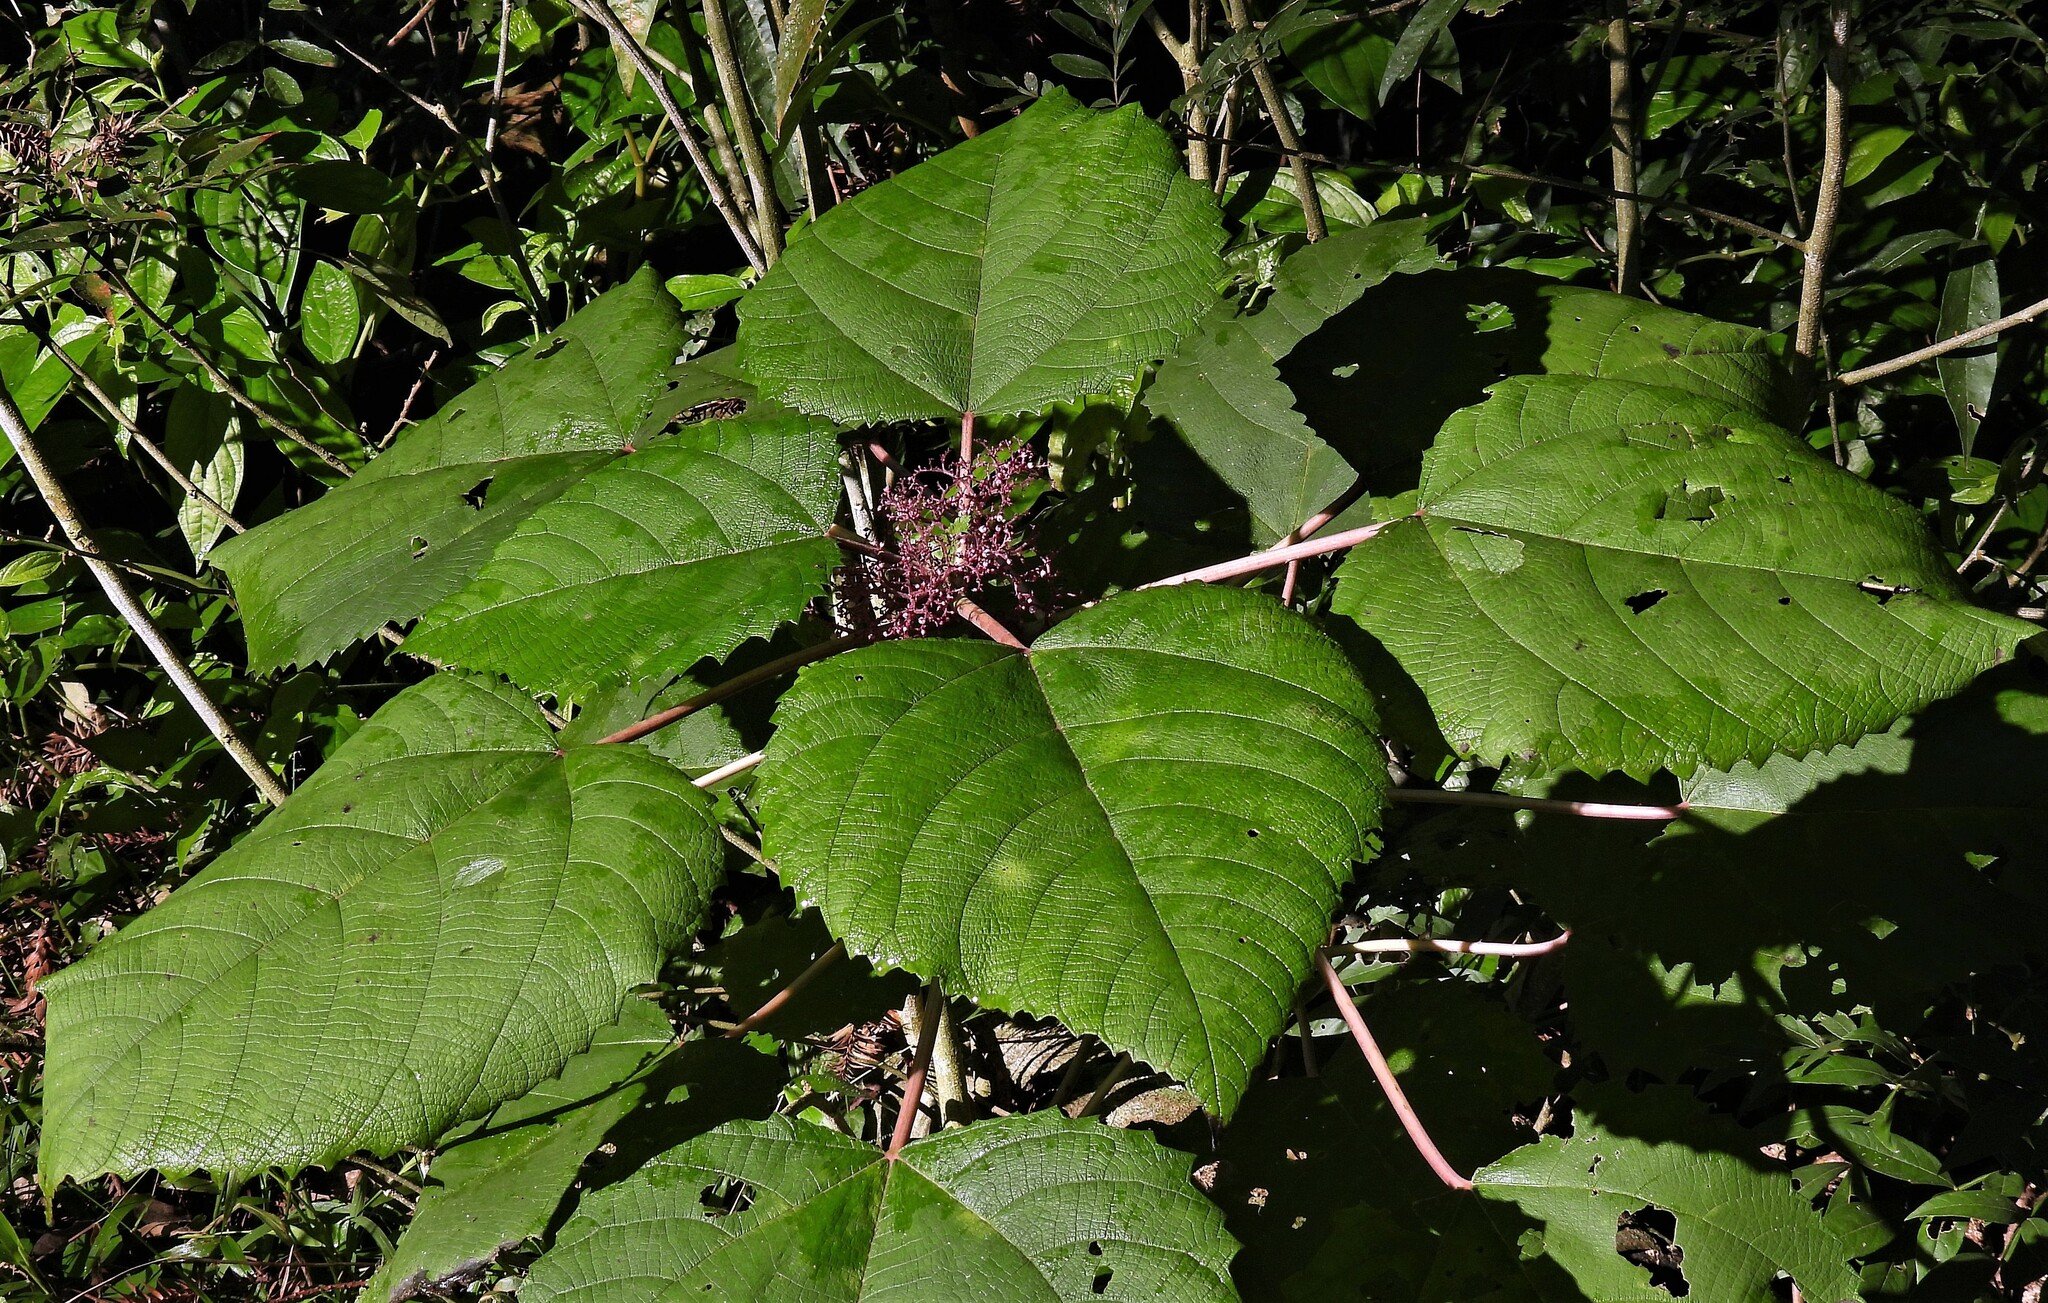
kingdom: Plantae
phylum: Tracheophyta
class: Magnoliopsida
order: Rosales
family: Urticaceae
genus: Urera
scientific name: Urera baccifera
